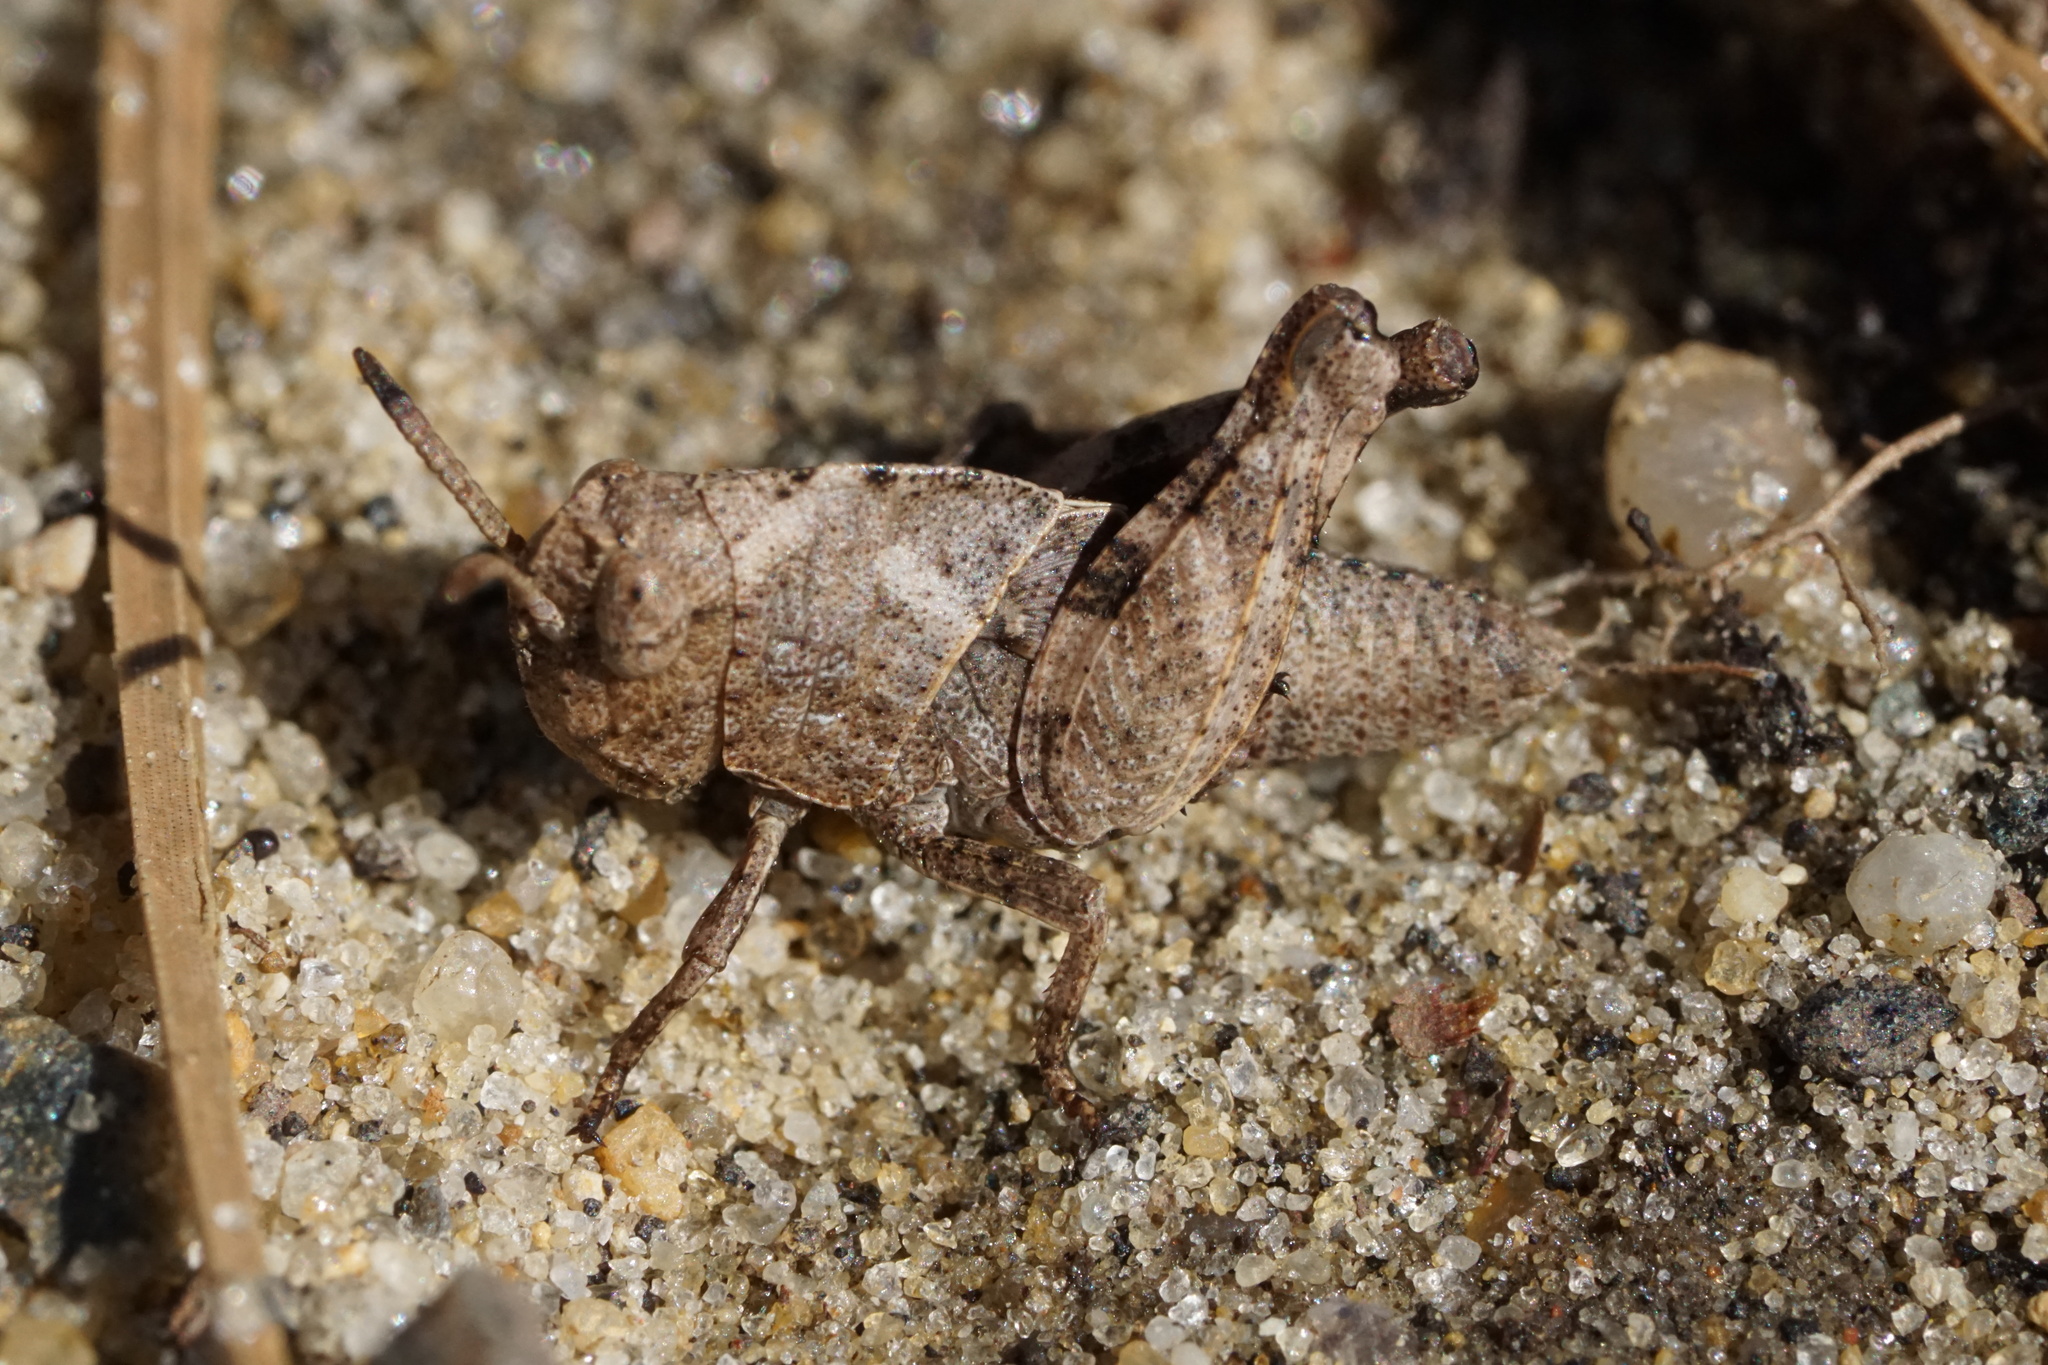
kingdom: Animalia
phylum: Arthropoda
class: Insecta
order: Orthoptera
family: Acrididae
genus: Arphia
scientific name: Arphia sulphurea
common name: Spring yellow-winged locust
